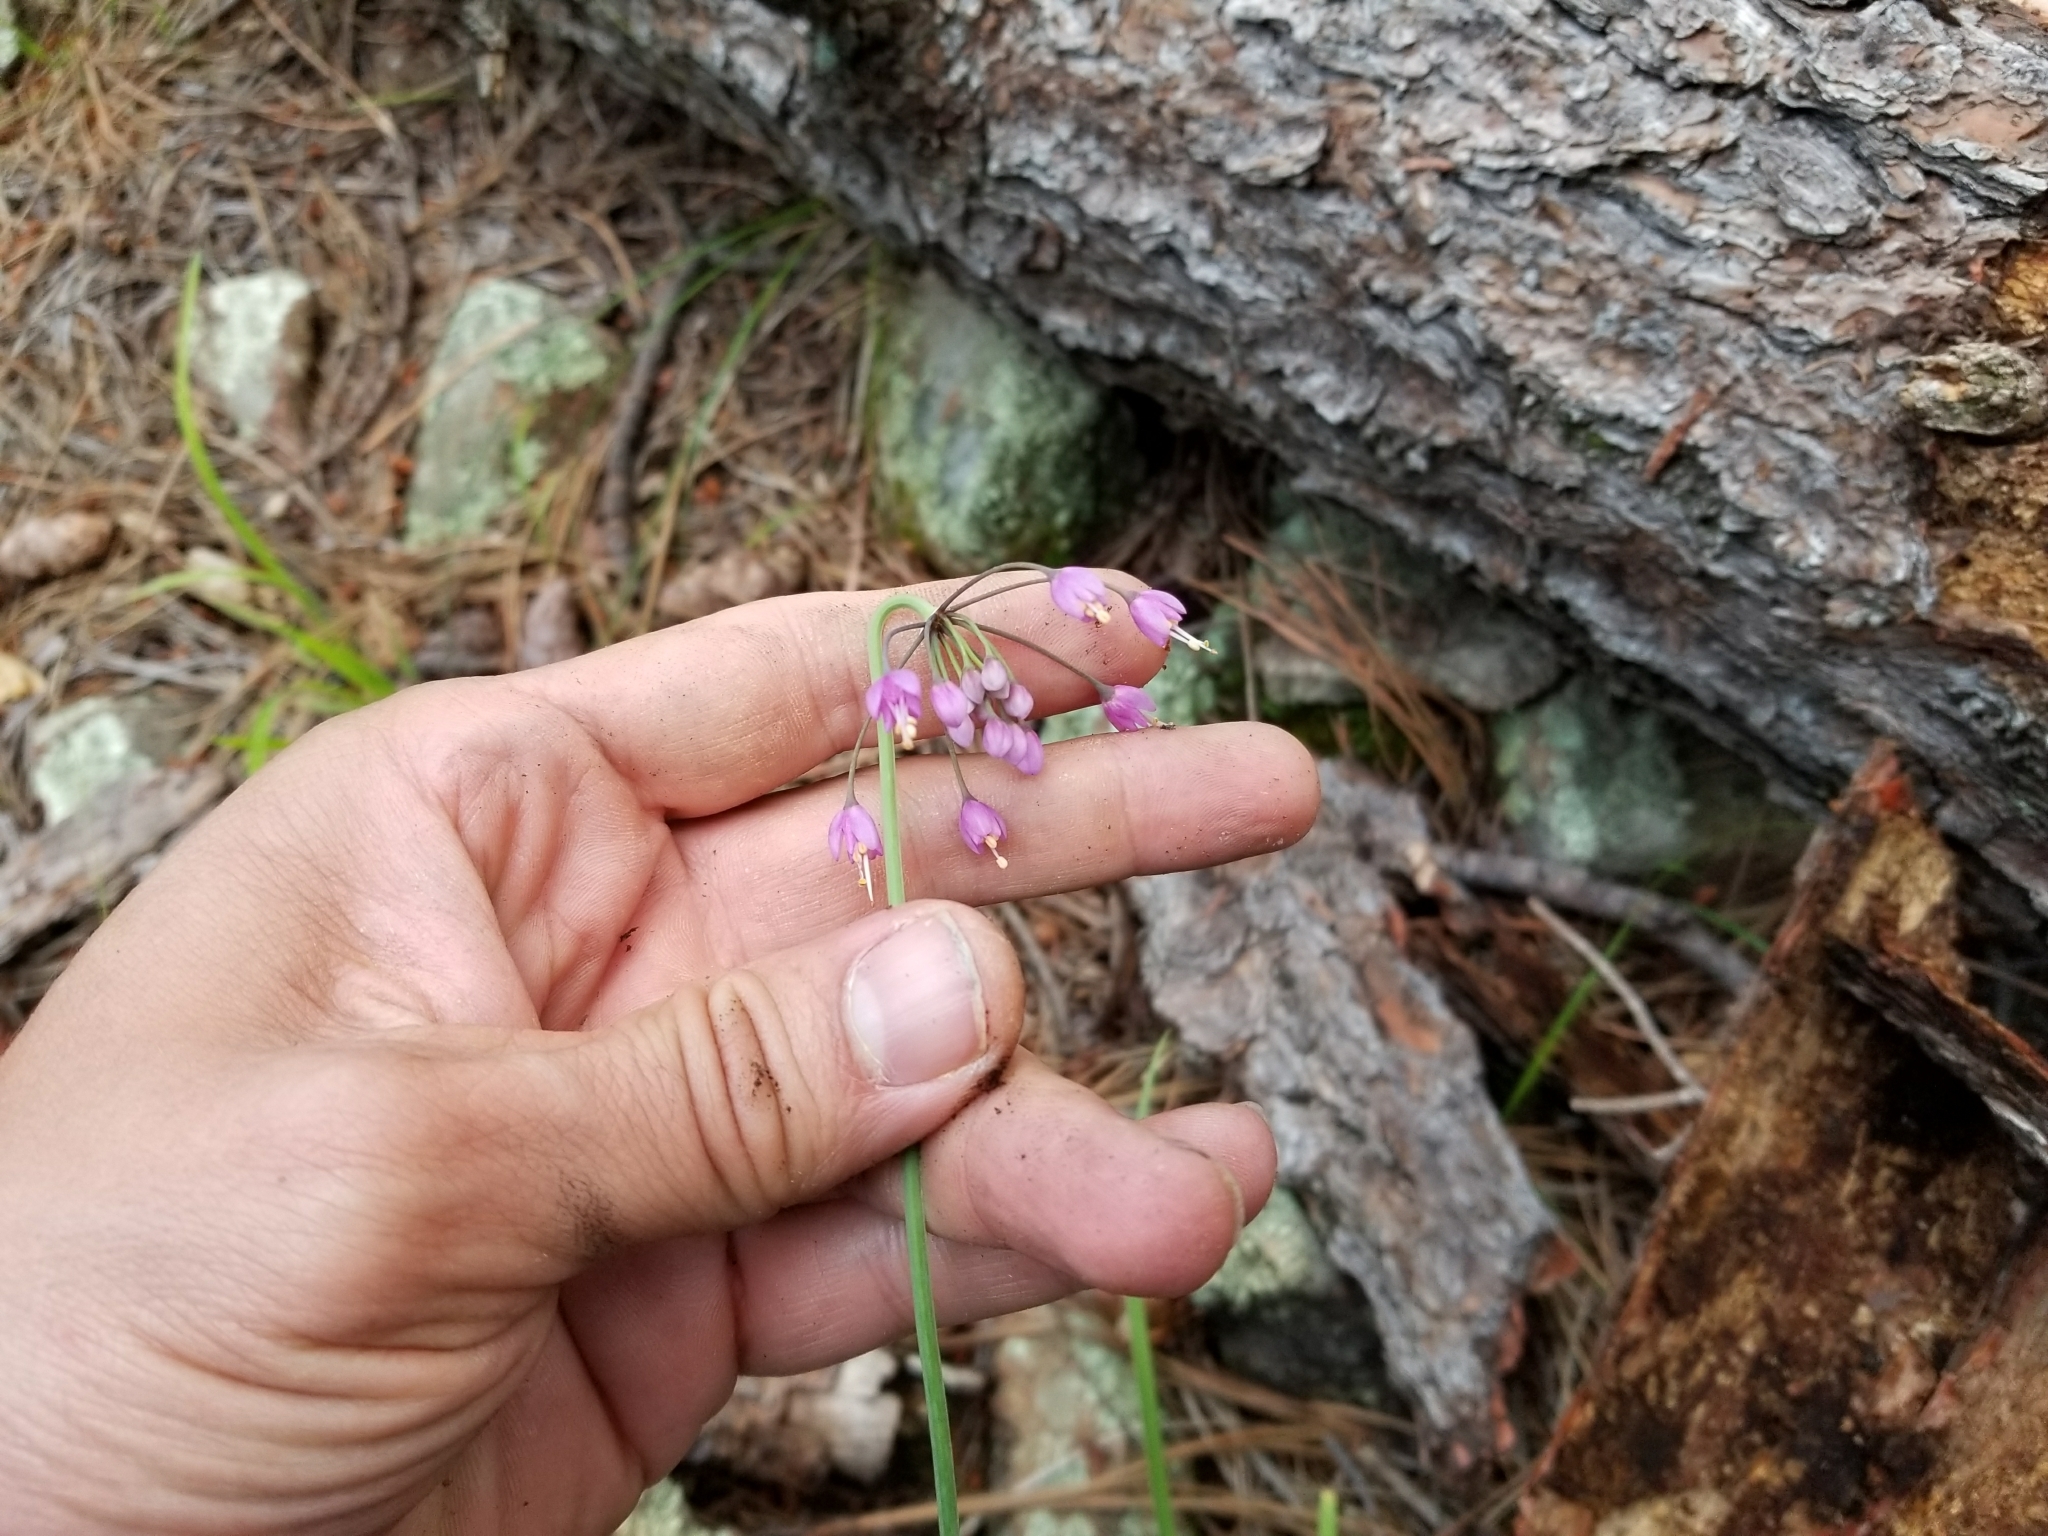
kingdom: Plantae
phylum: Tracheophyta
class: Liliopsida
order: Asparagales
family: Amaryllidaceae
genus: Allium
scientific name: Allium cernuum
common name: Nodding onion
